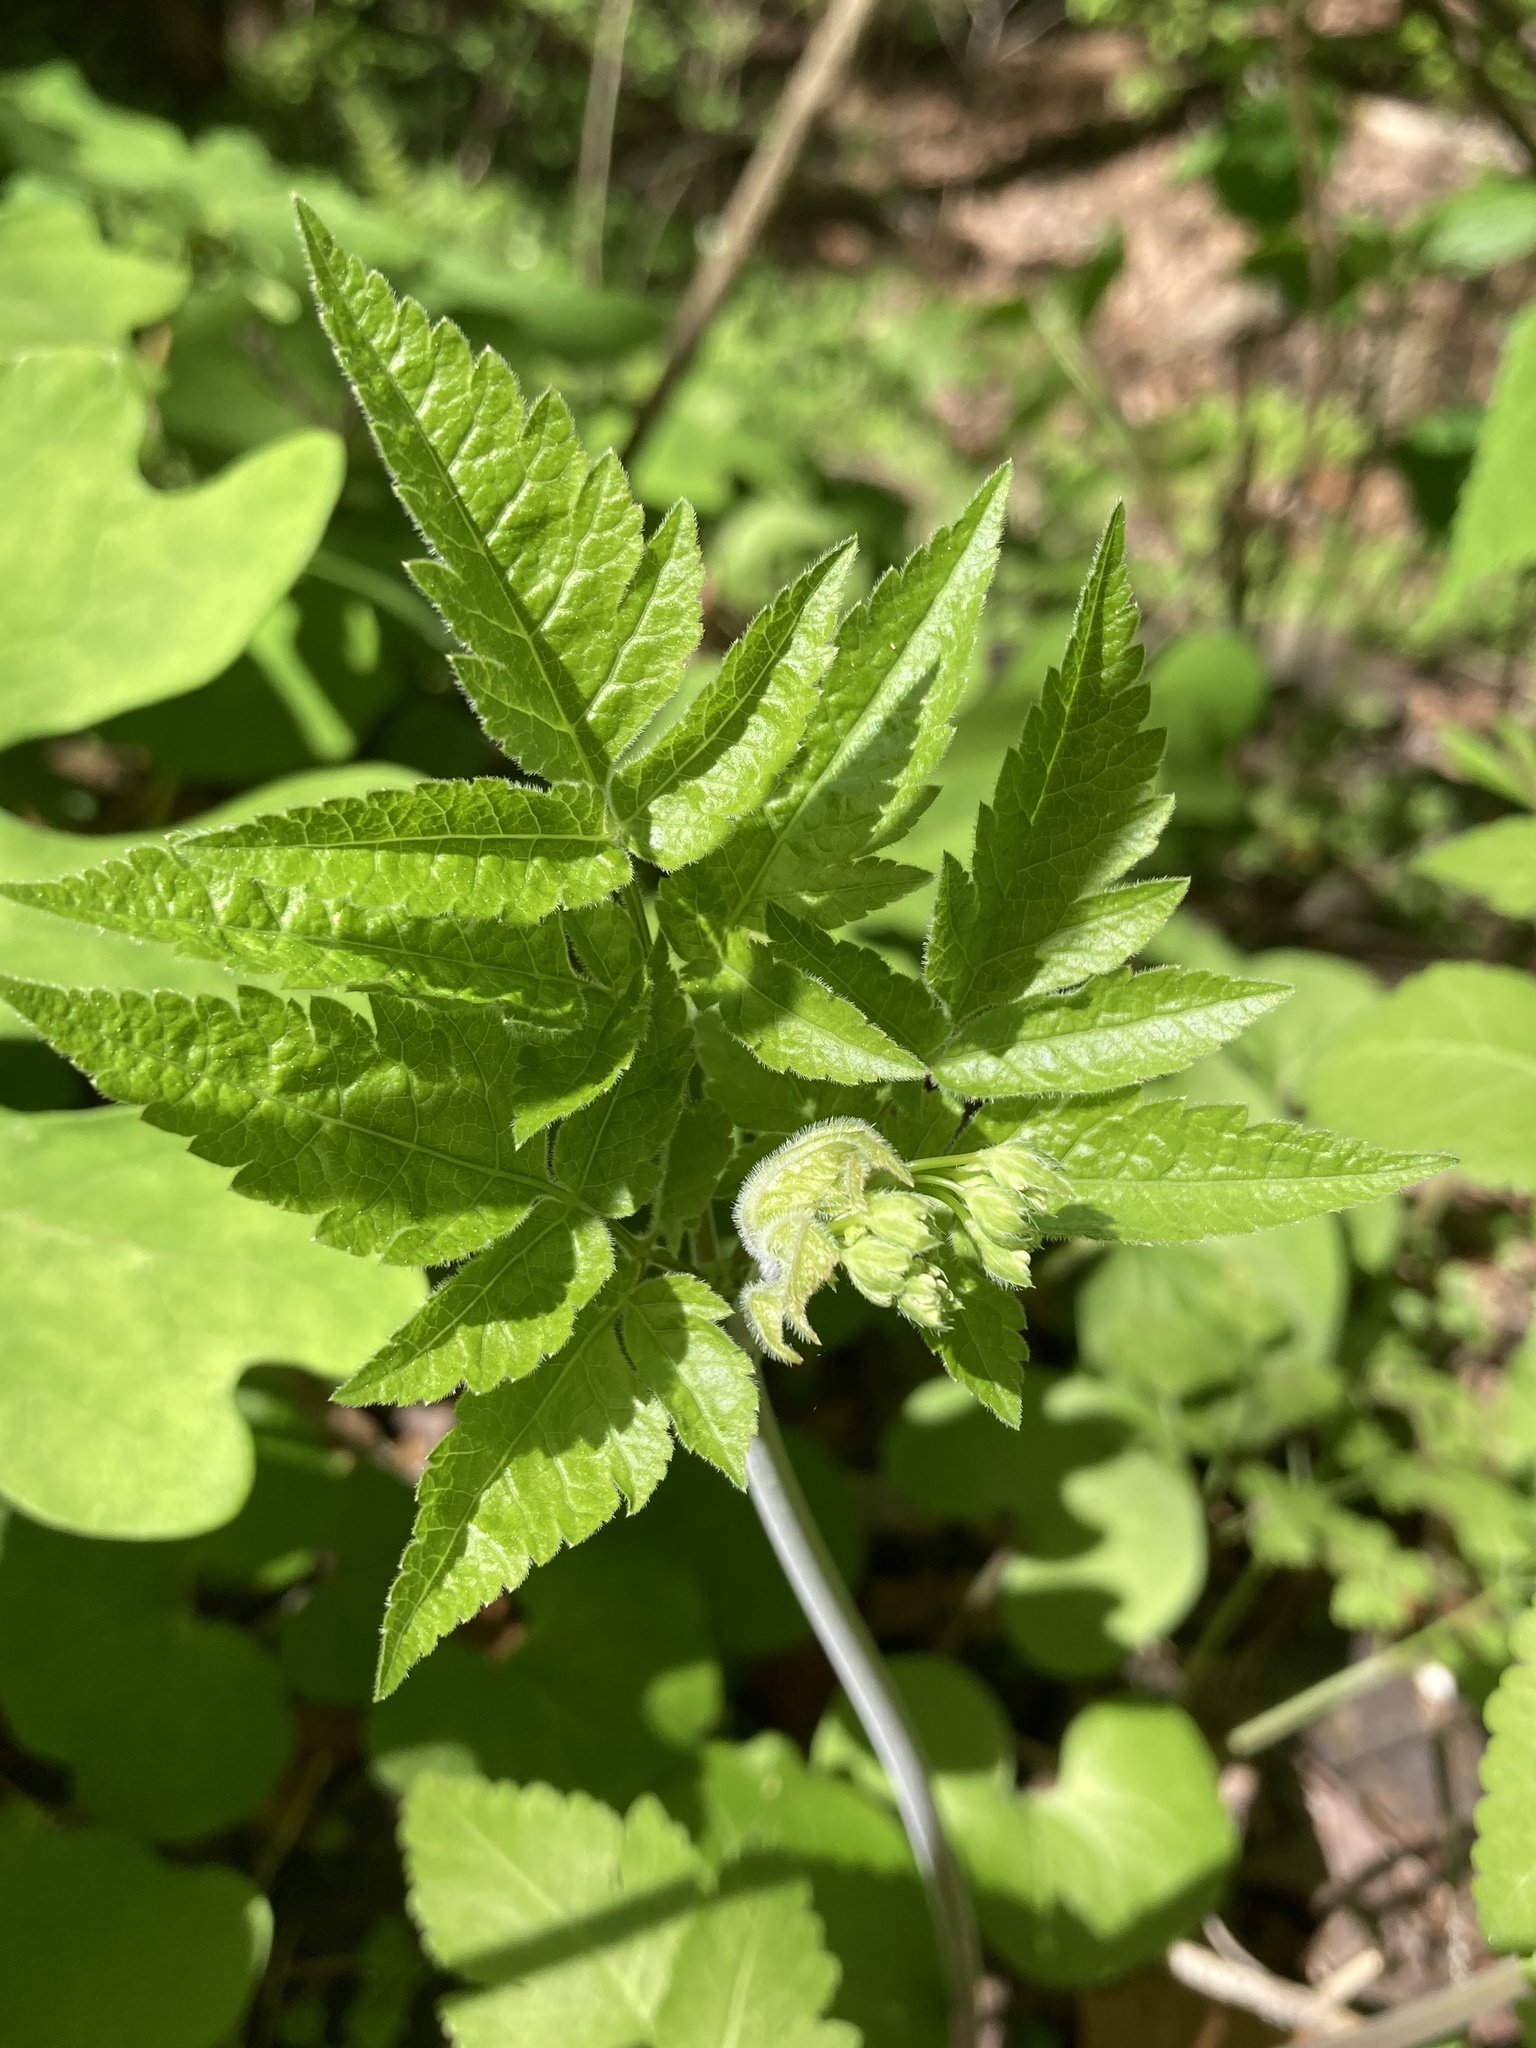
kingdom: Plantae
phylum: Tracheophyta
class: Magnoliopsida
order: Apiales
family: Apiaceae
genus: Osmorhiza
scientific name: Osmorhiza longistylis
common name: Smooth sweet cicely
